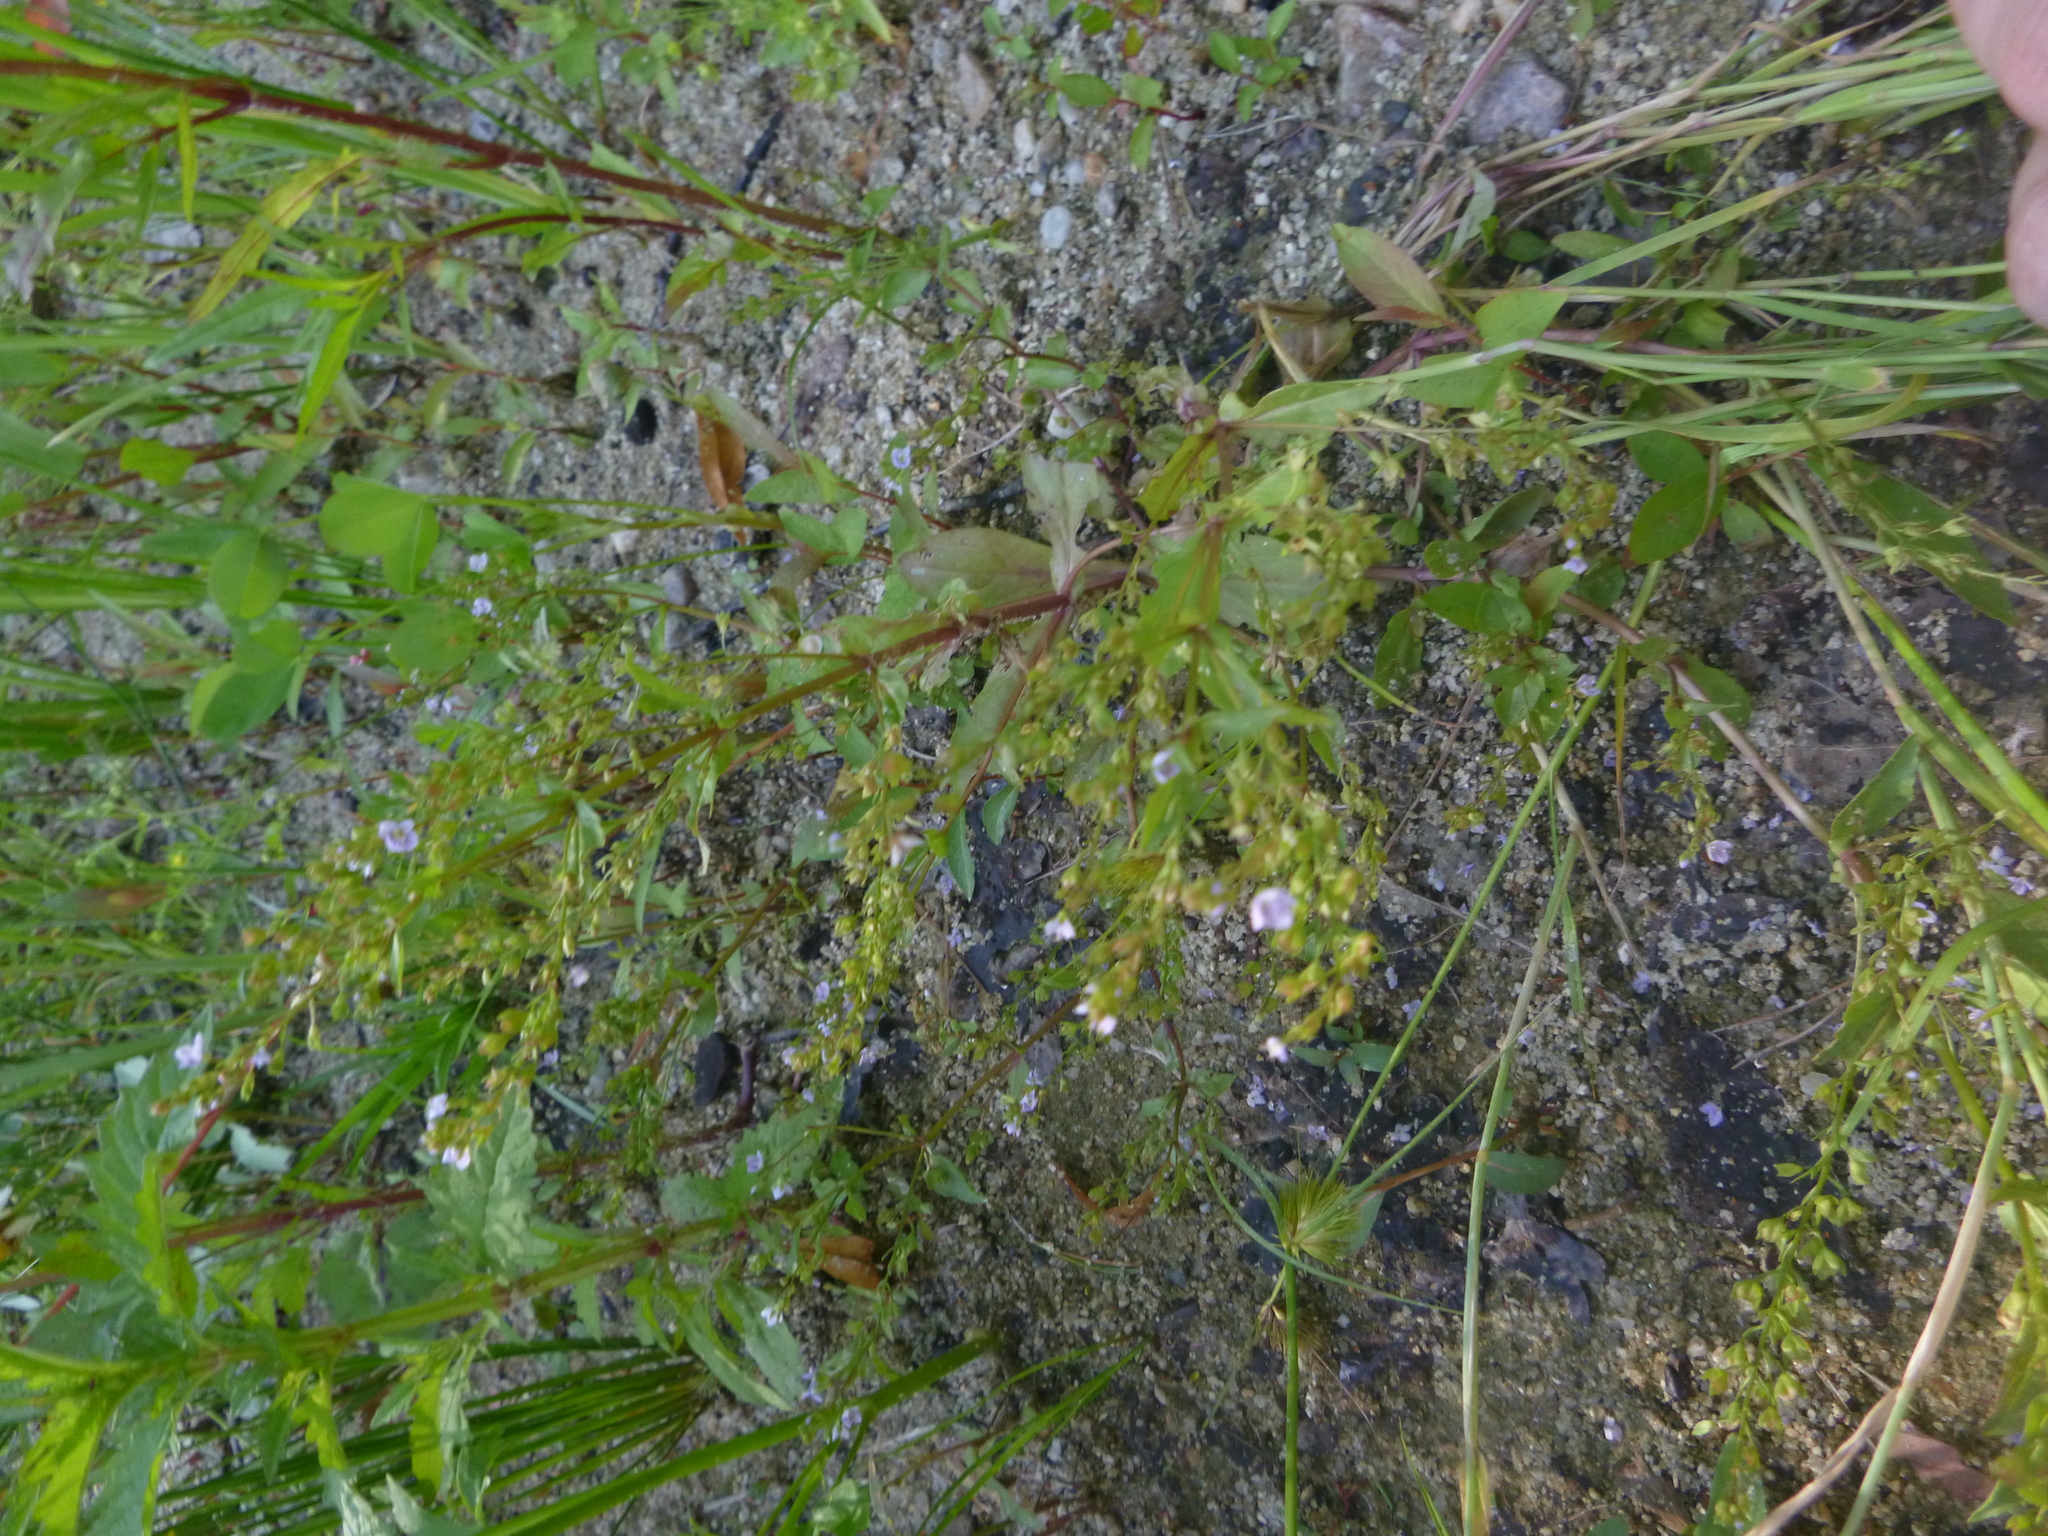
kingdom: Plantae
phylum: Tracheophyta
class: Magnoliopsida
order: Lamiales
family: Plantaginaceae
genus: Veronica
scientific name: Veronica anagallis-aquatica
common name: Water speedwell
